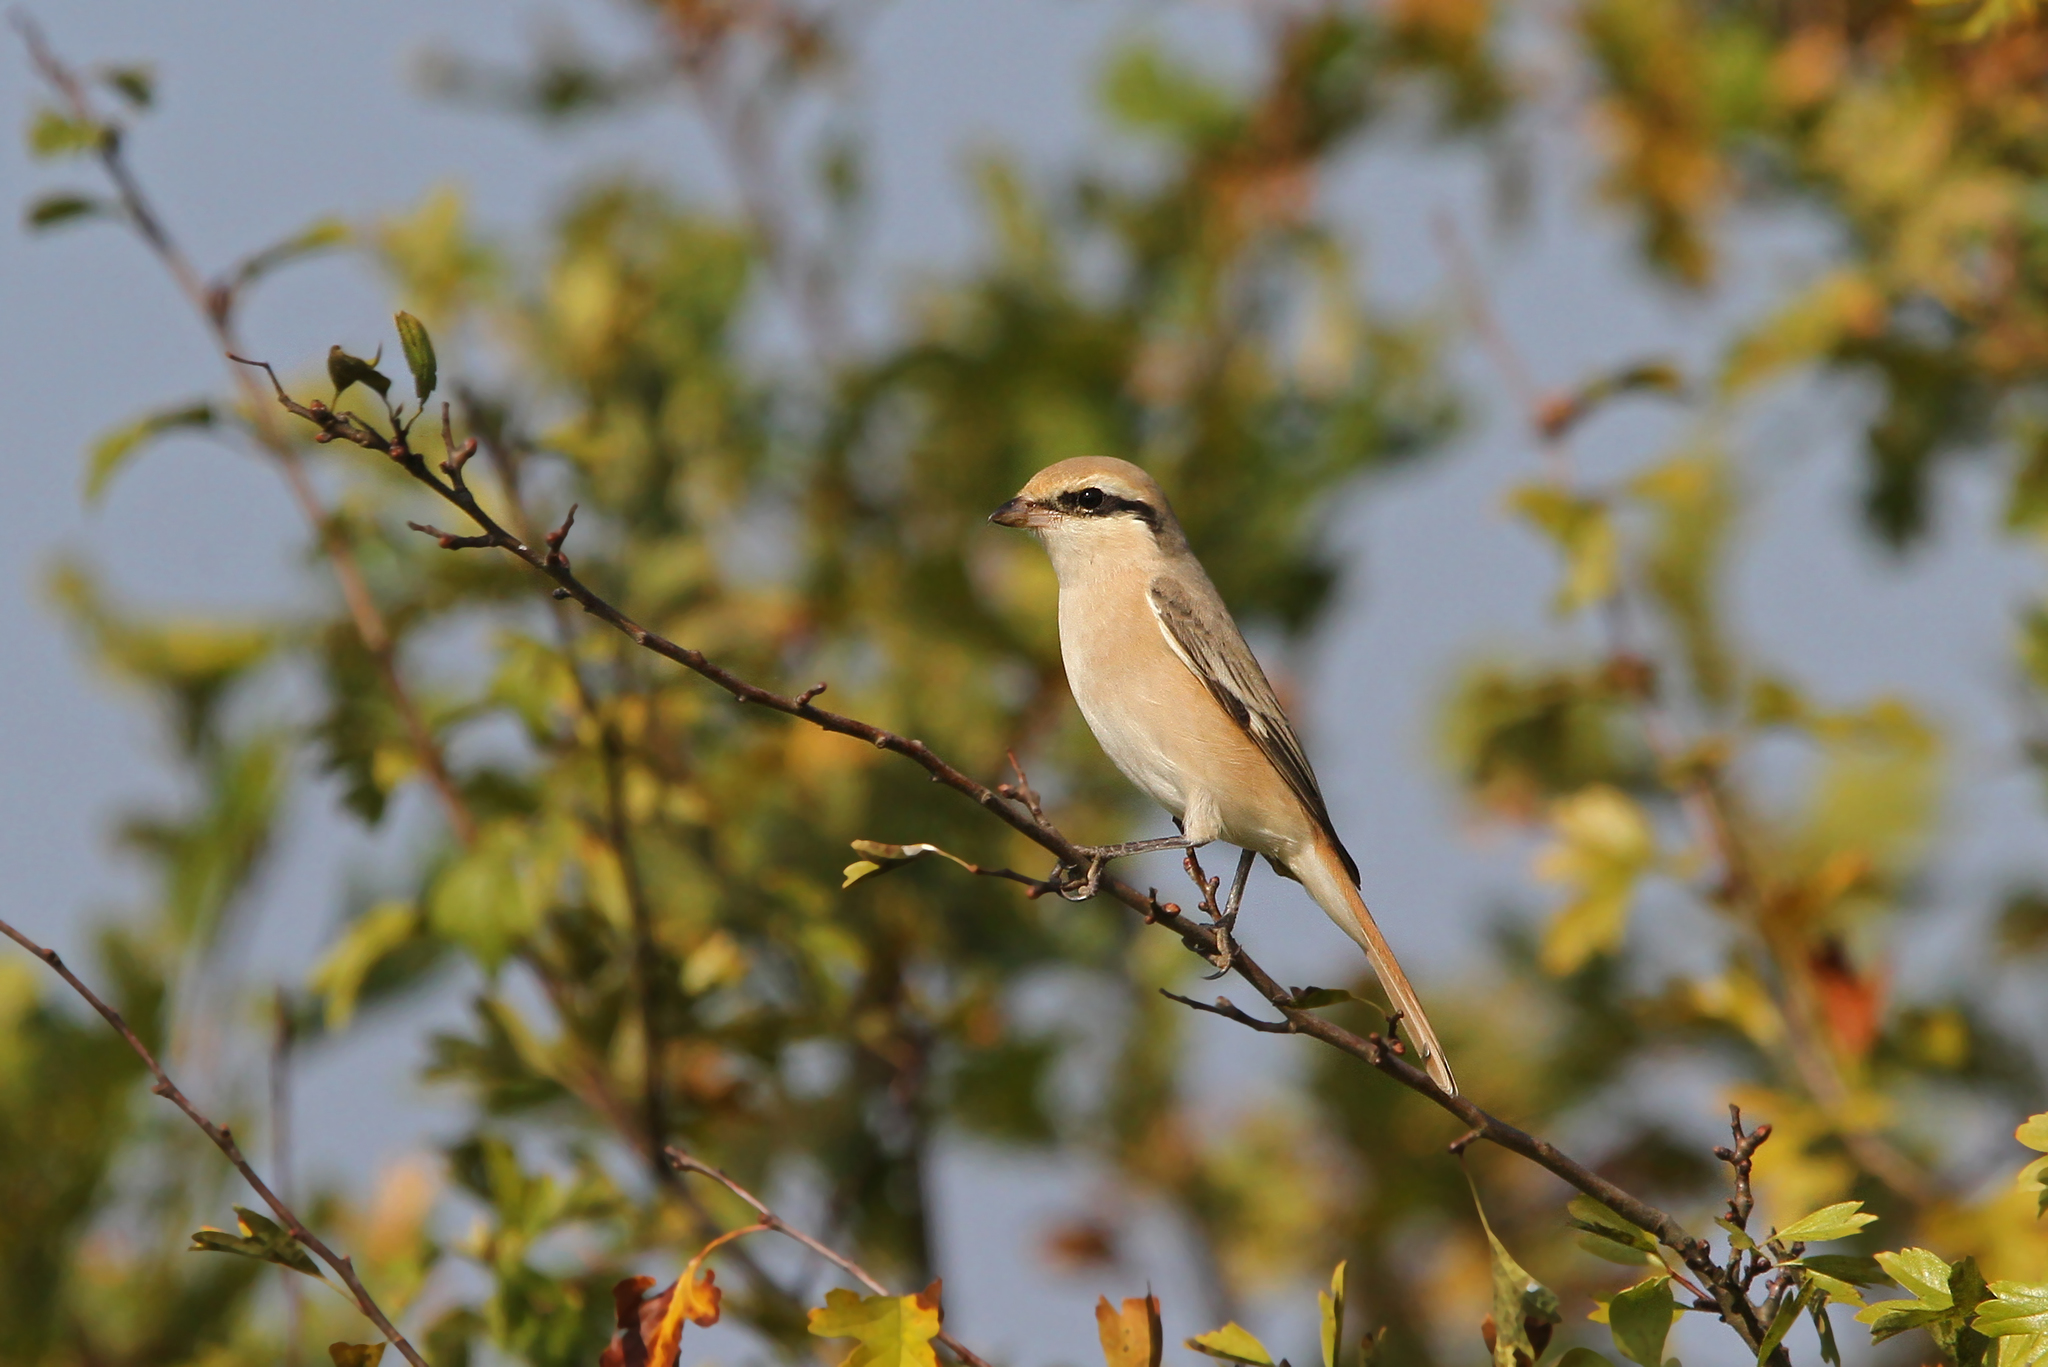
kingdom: Animalia
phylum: Chordata
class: Aves
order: Passeriformes
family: Laniidae
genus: Lanius
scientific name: Lanius isabellinus
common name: Isabelline shrike
